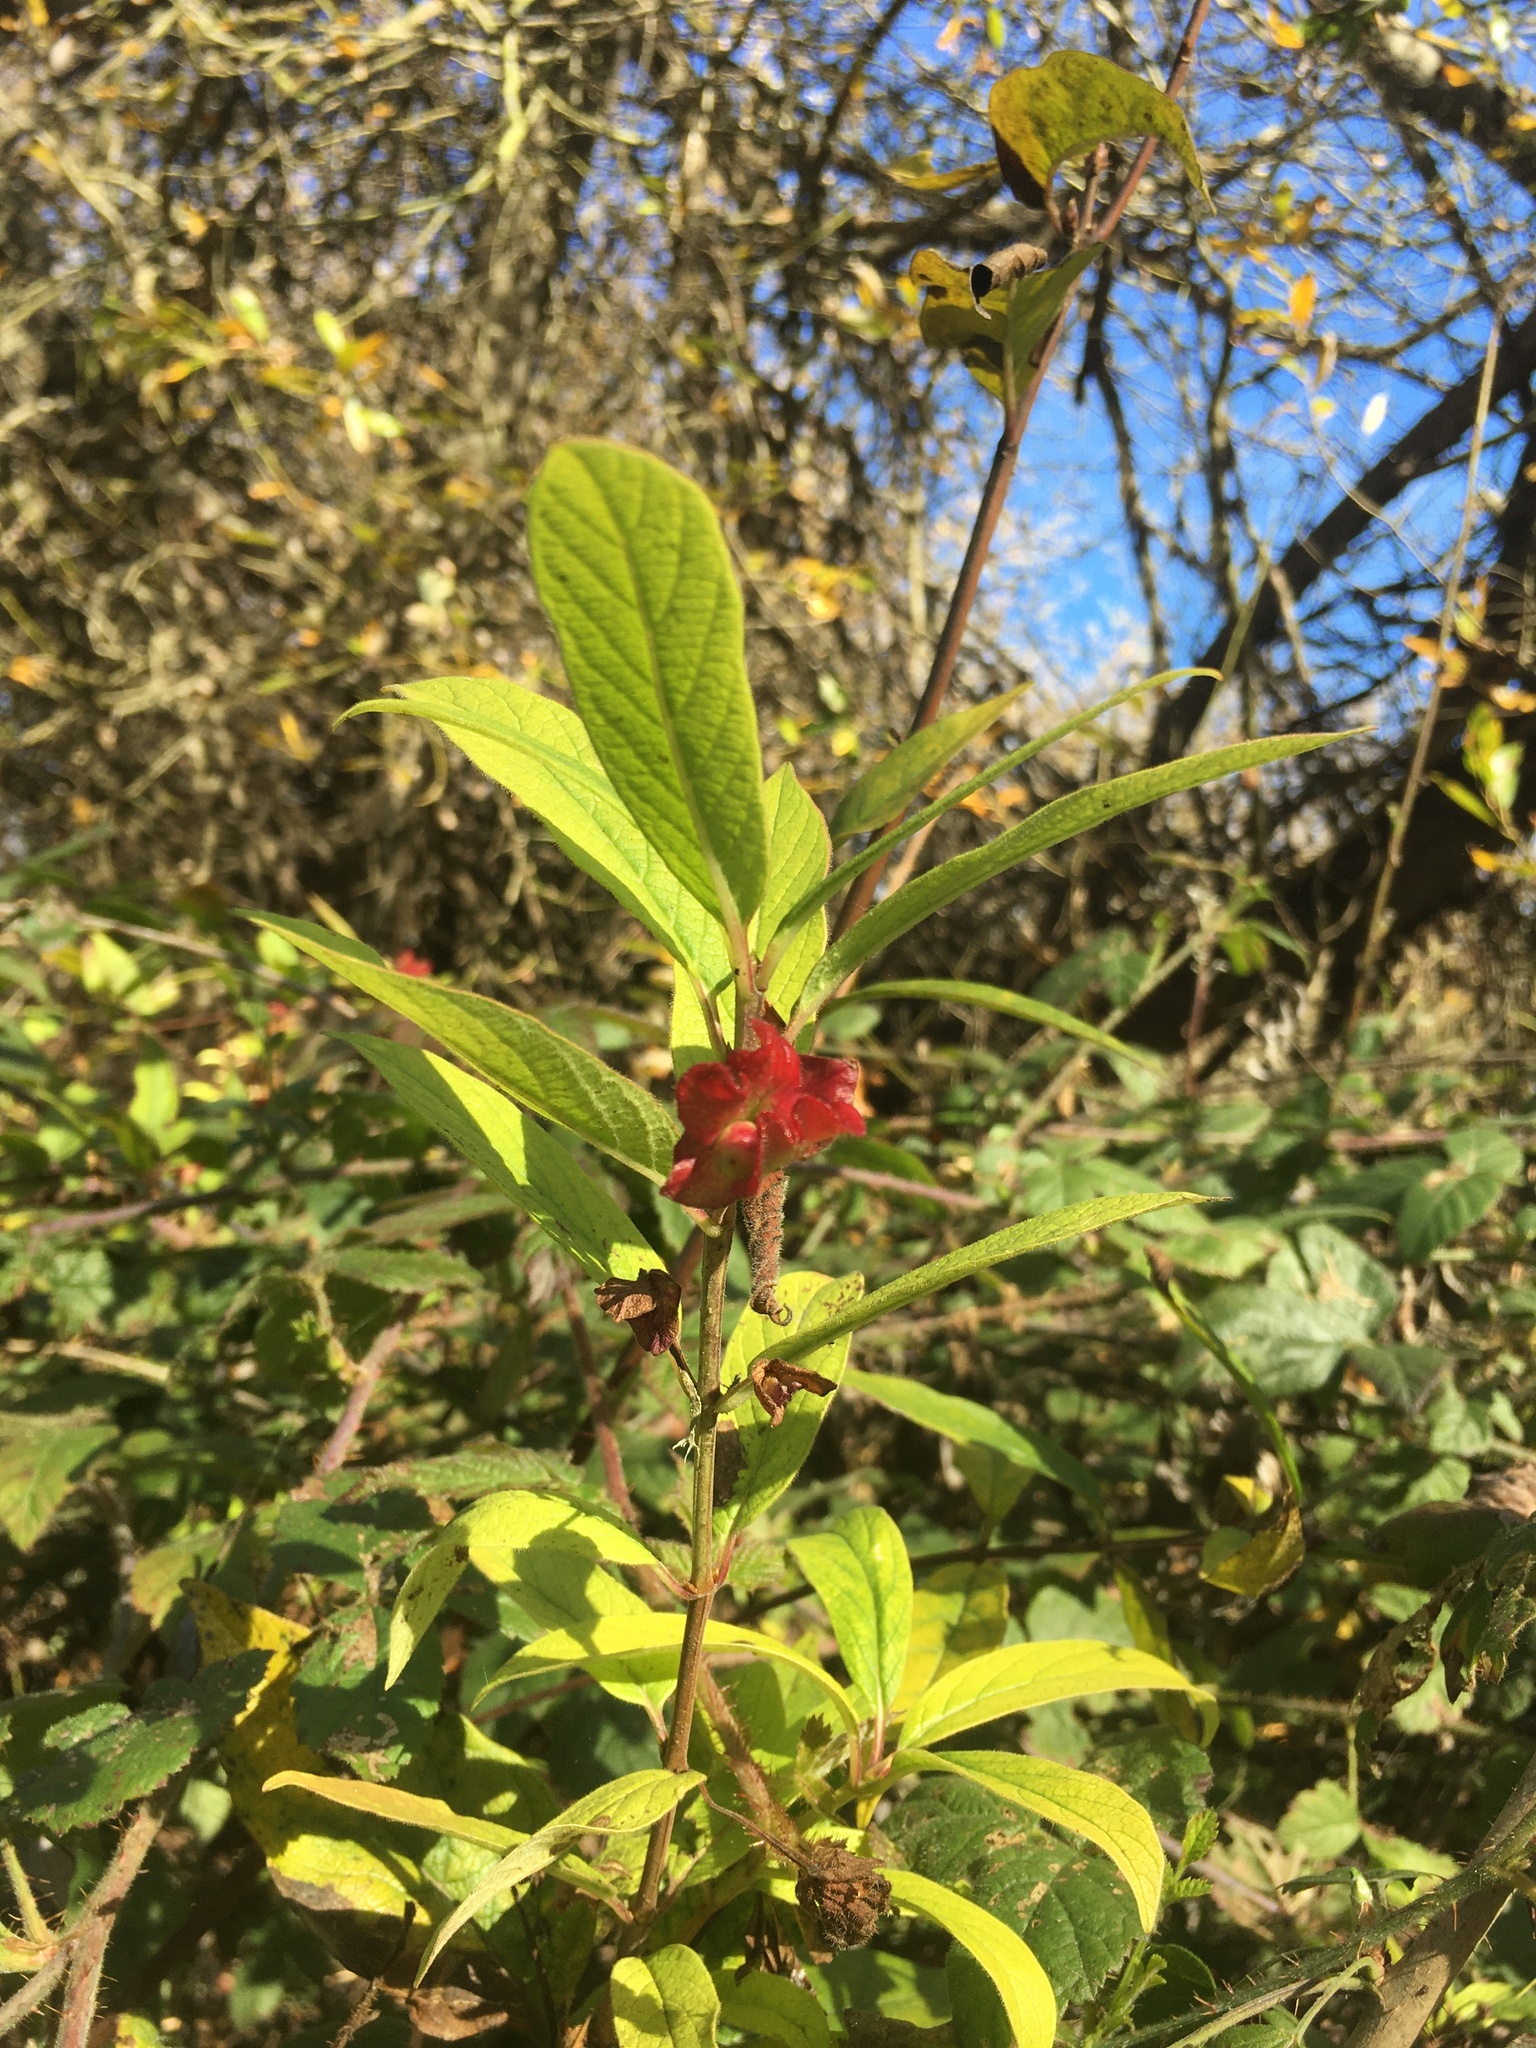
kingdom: Plantae
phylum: Tracheophyta
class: Magnoliopsida
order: Dipsacales
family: Caprifoliaceae
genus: Lonicera
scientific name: Lonicera involucrata
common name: Californian honeysuckle
